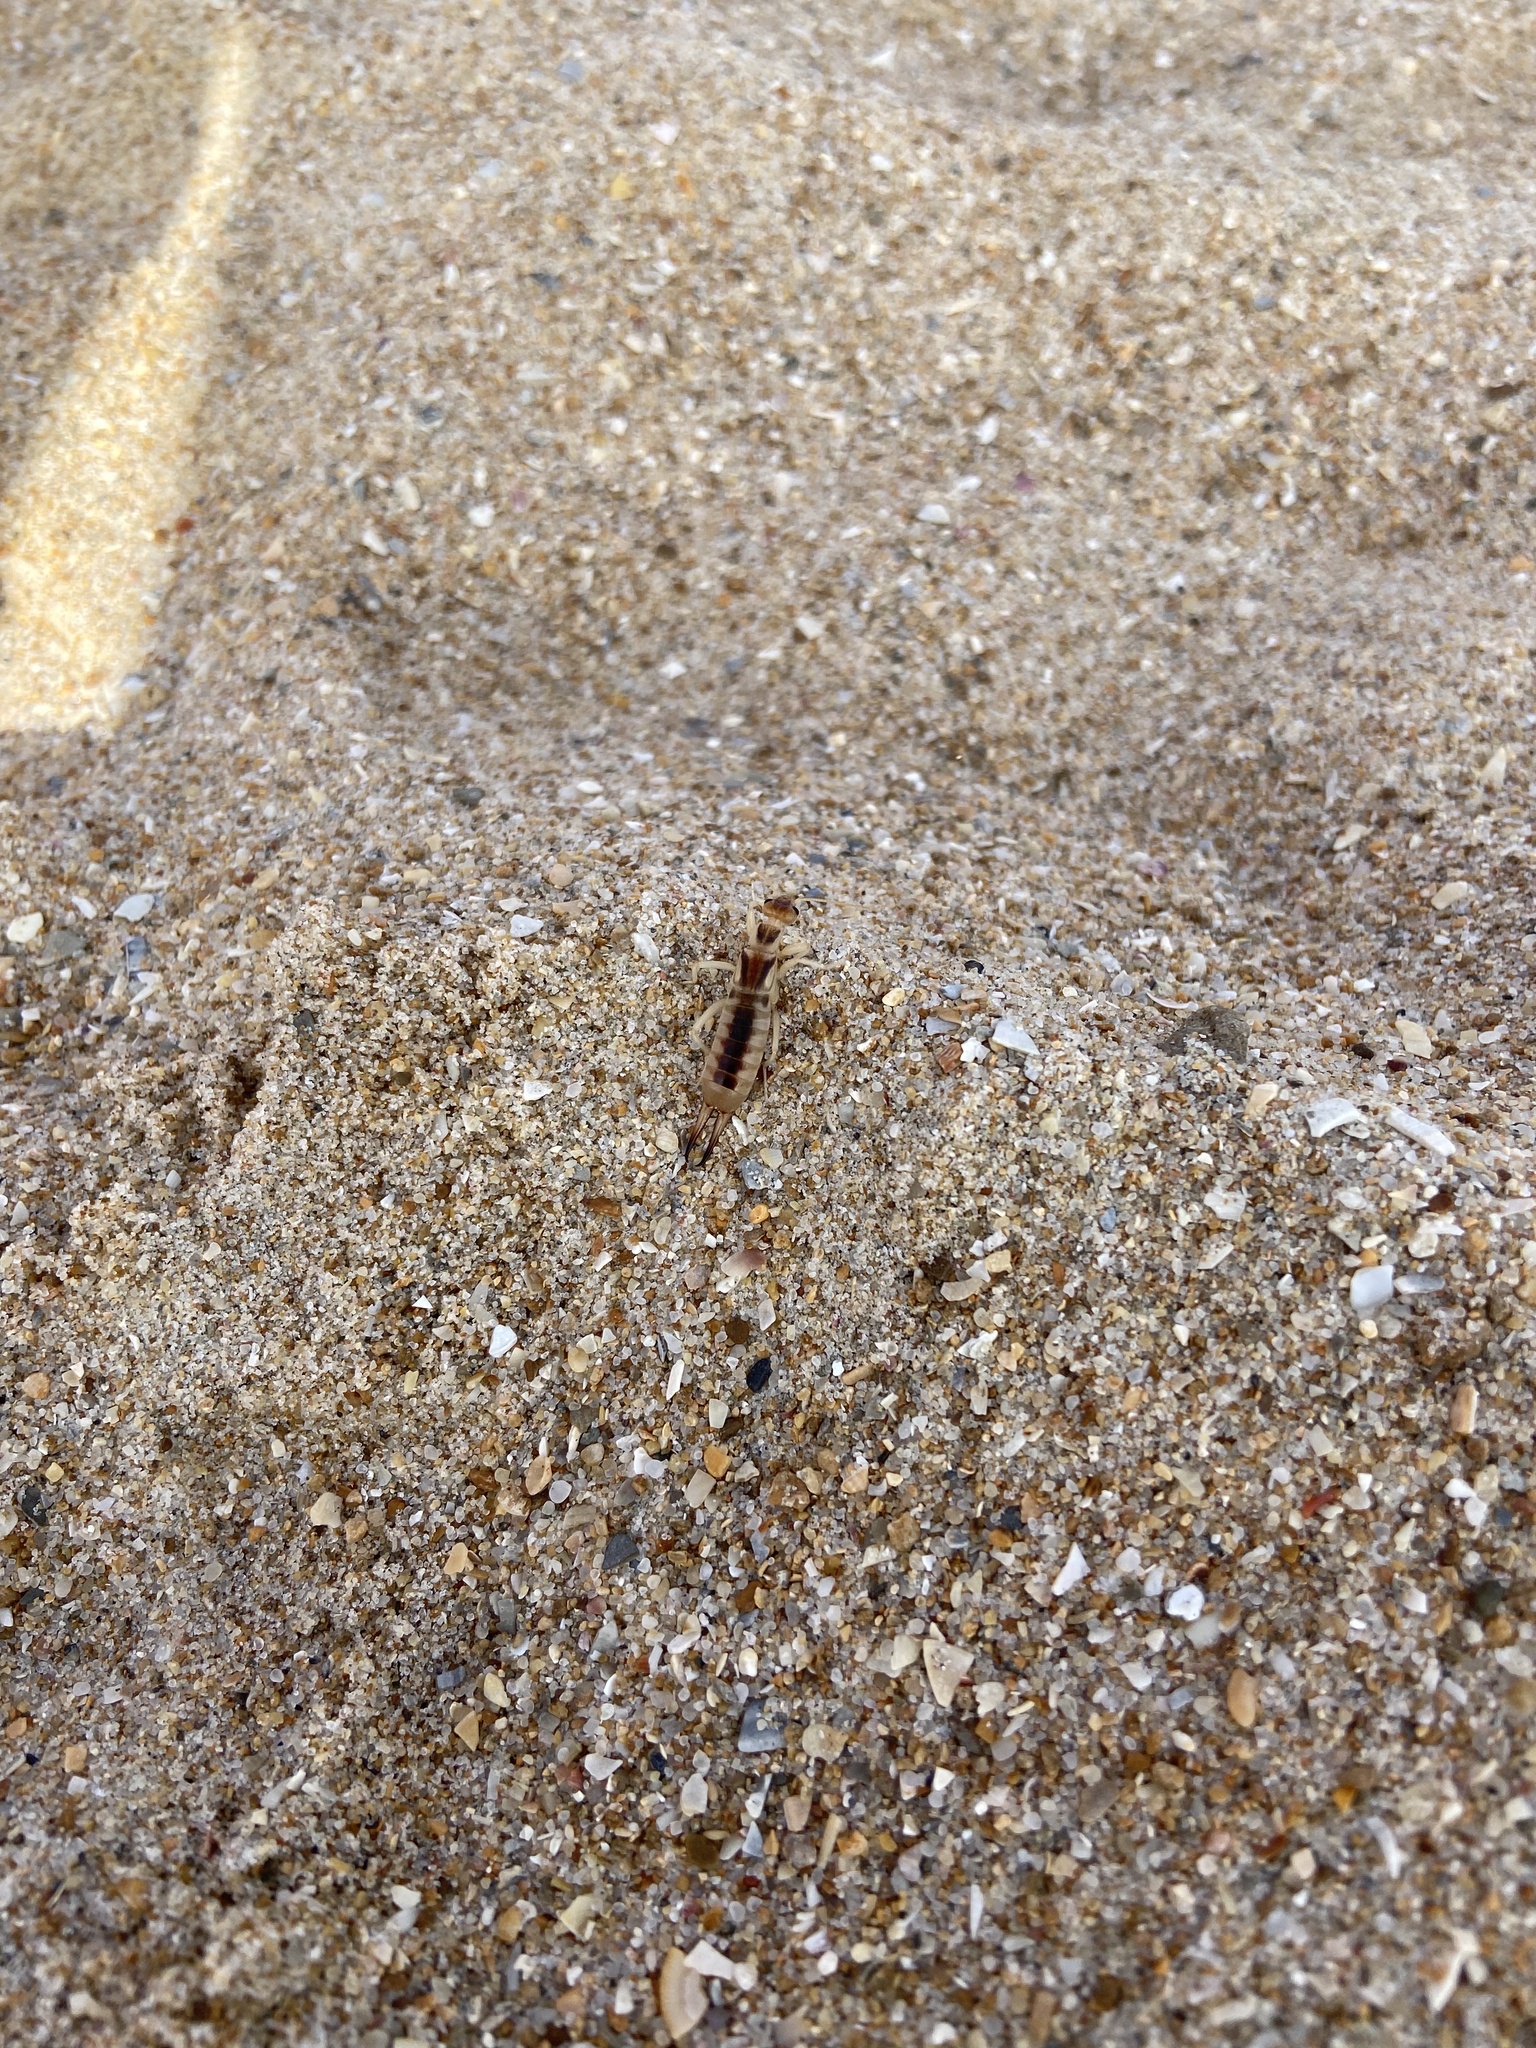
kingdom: Animalia
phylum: Arthropoda
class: Insecta
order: Dermaptera
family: Labiduridae
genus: Labidura
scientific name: Labidura riparia
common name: Striped earwig
